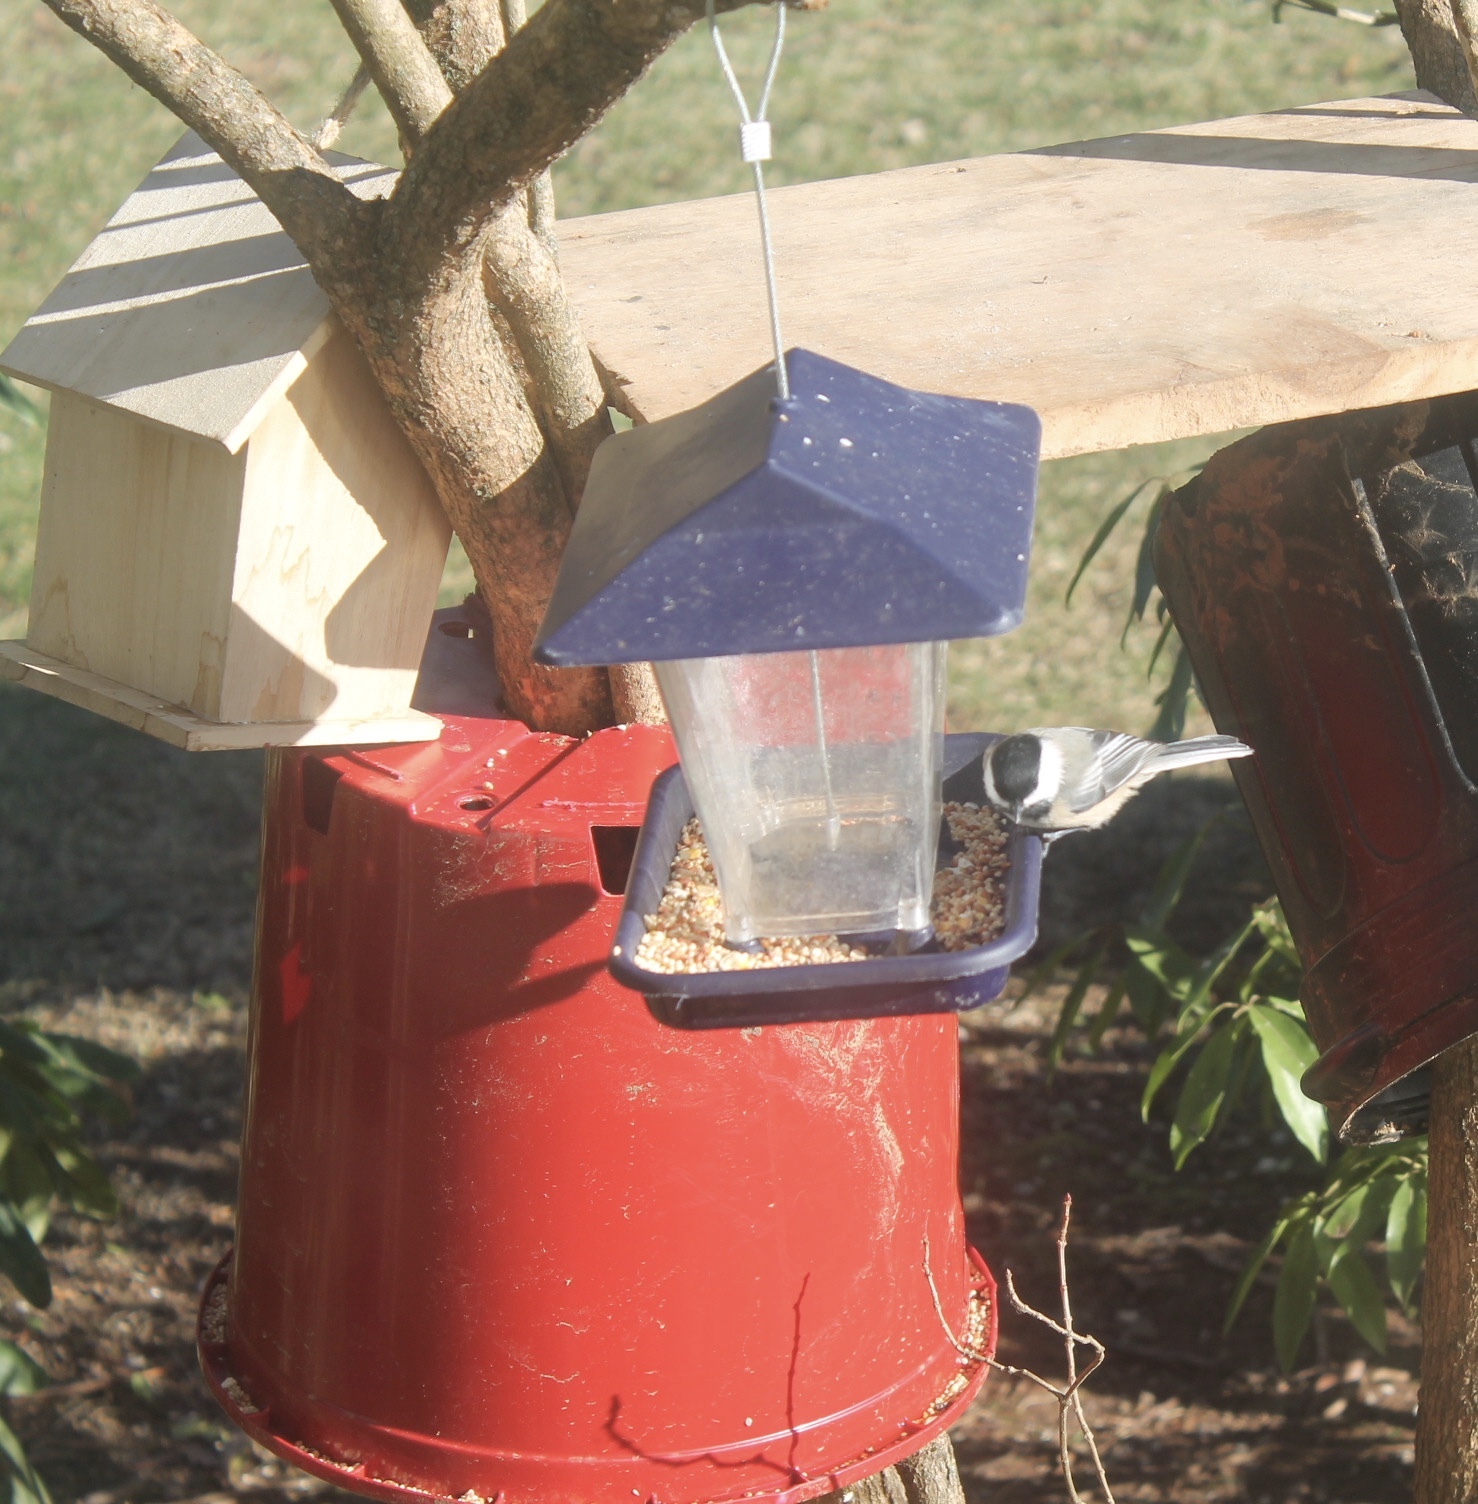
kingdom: Animalia
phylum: Chordata
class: Aves
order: Passeriformes
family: Paridae
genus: Poecile
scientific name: Poecile atricapillus
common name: Black-capped chickadee
